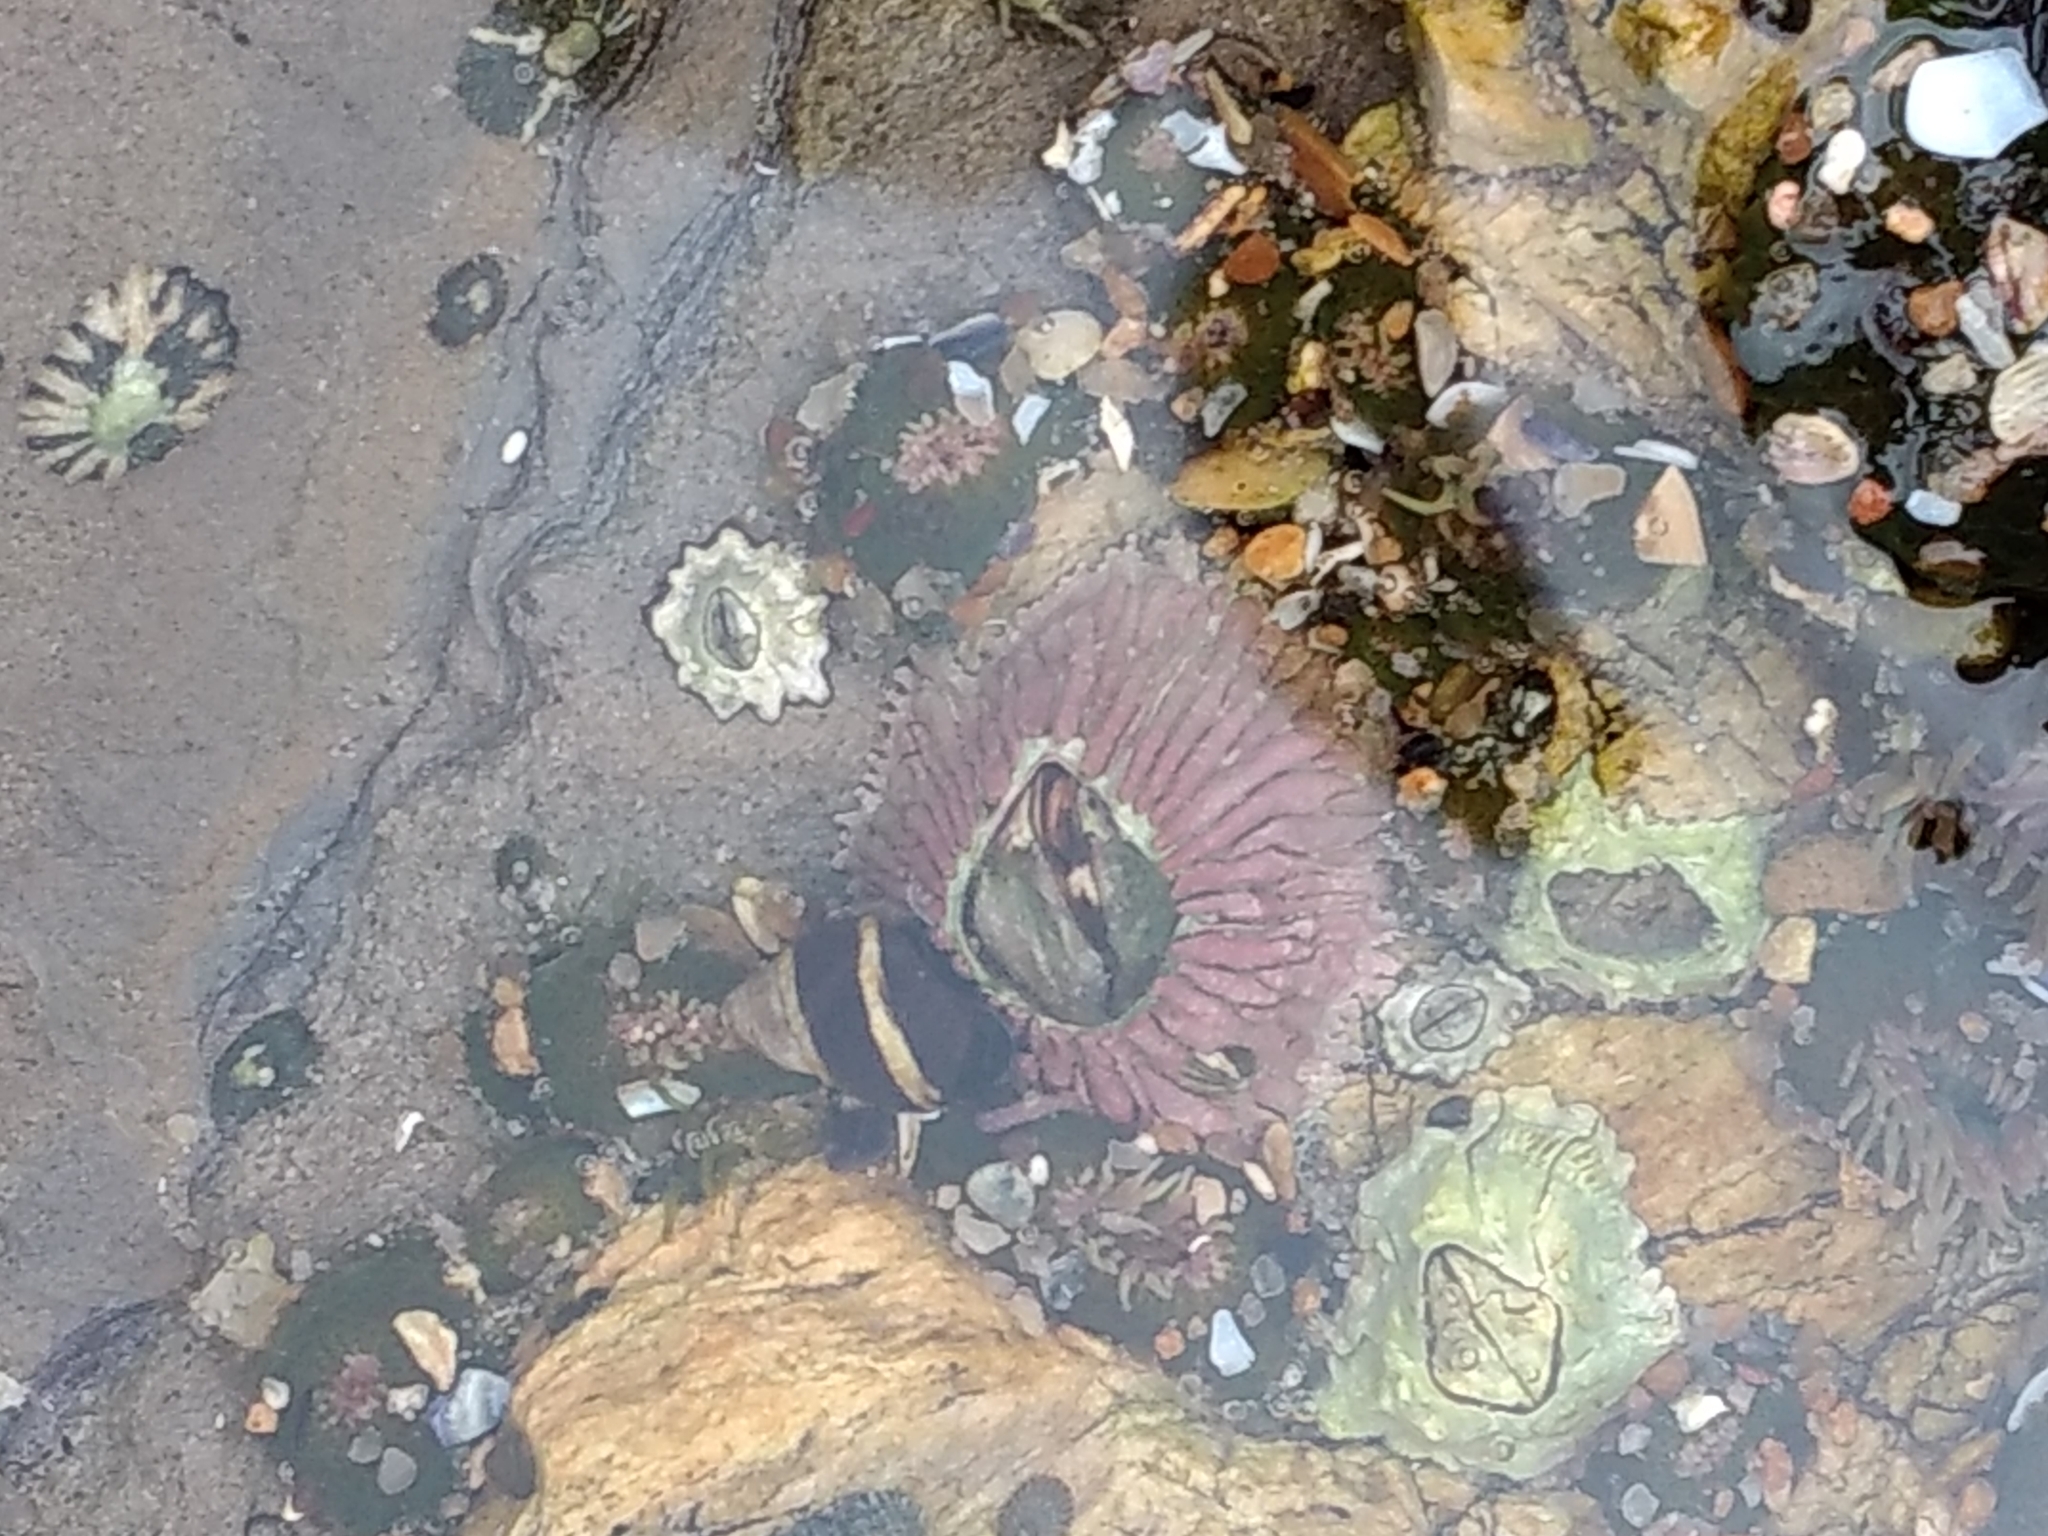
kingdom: Animalia
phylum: Arthropoda
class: Maxillopoda
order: Sessilia
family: Tetraclitidae
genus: Tetraclita
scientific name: Tetraclita rubescens
